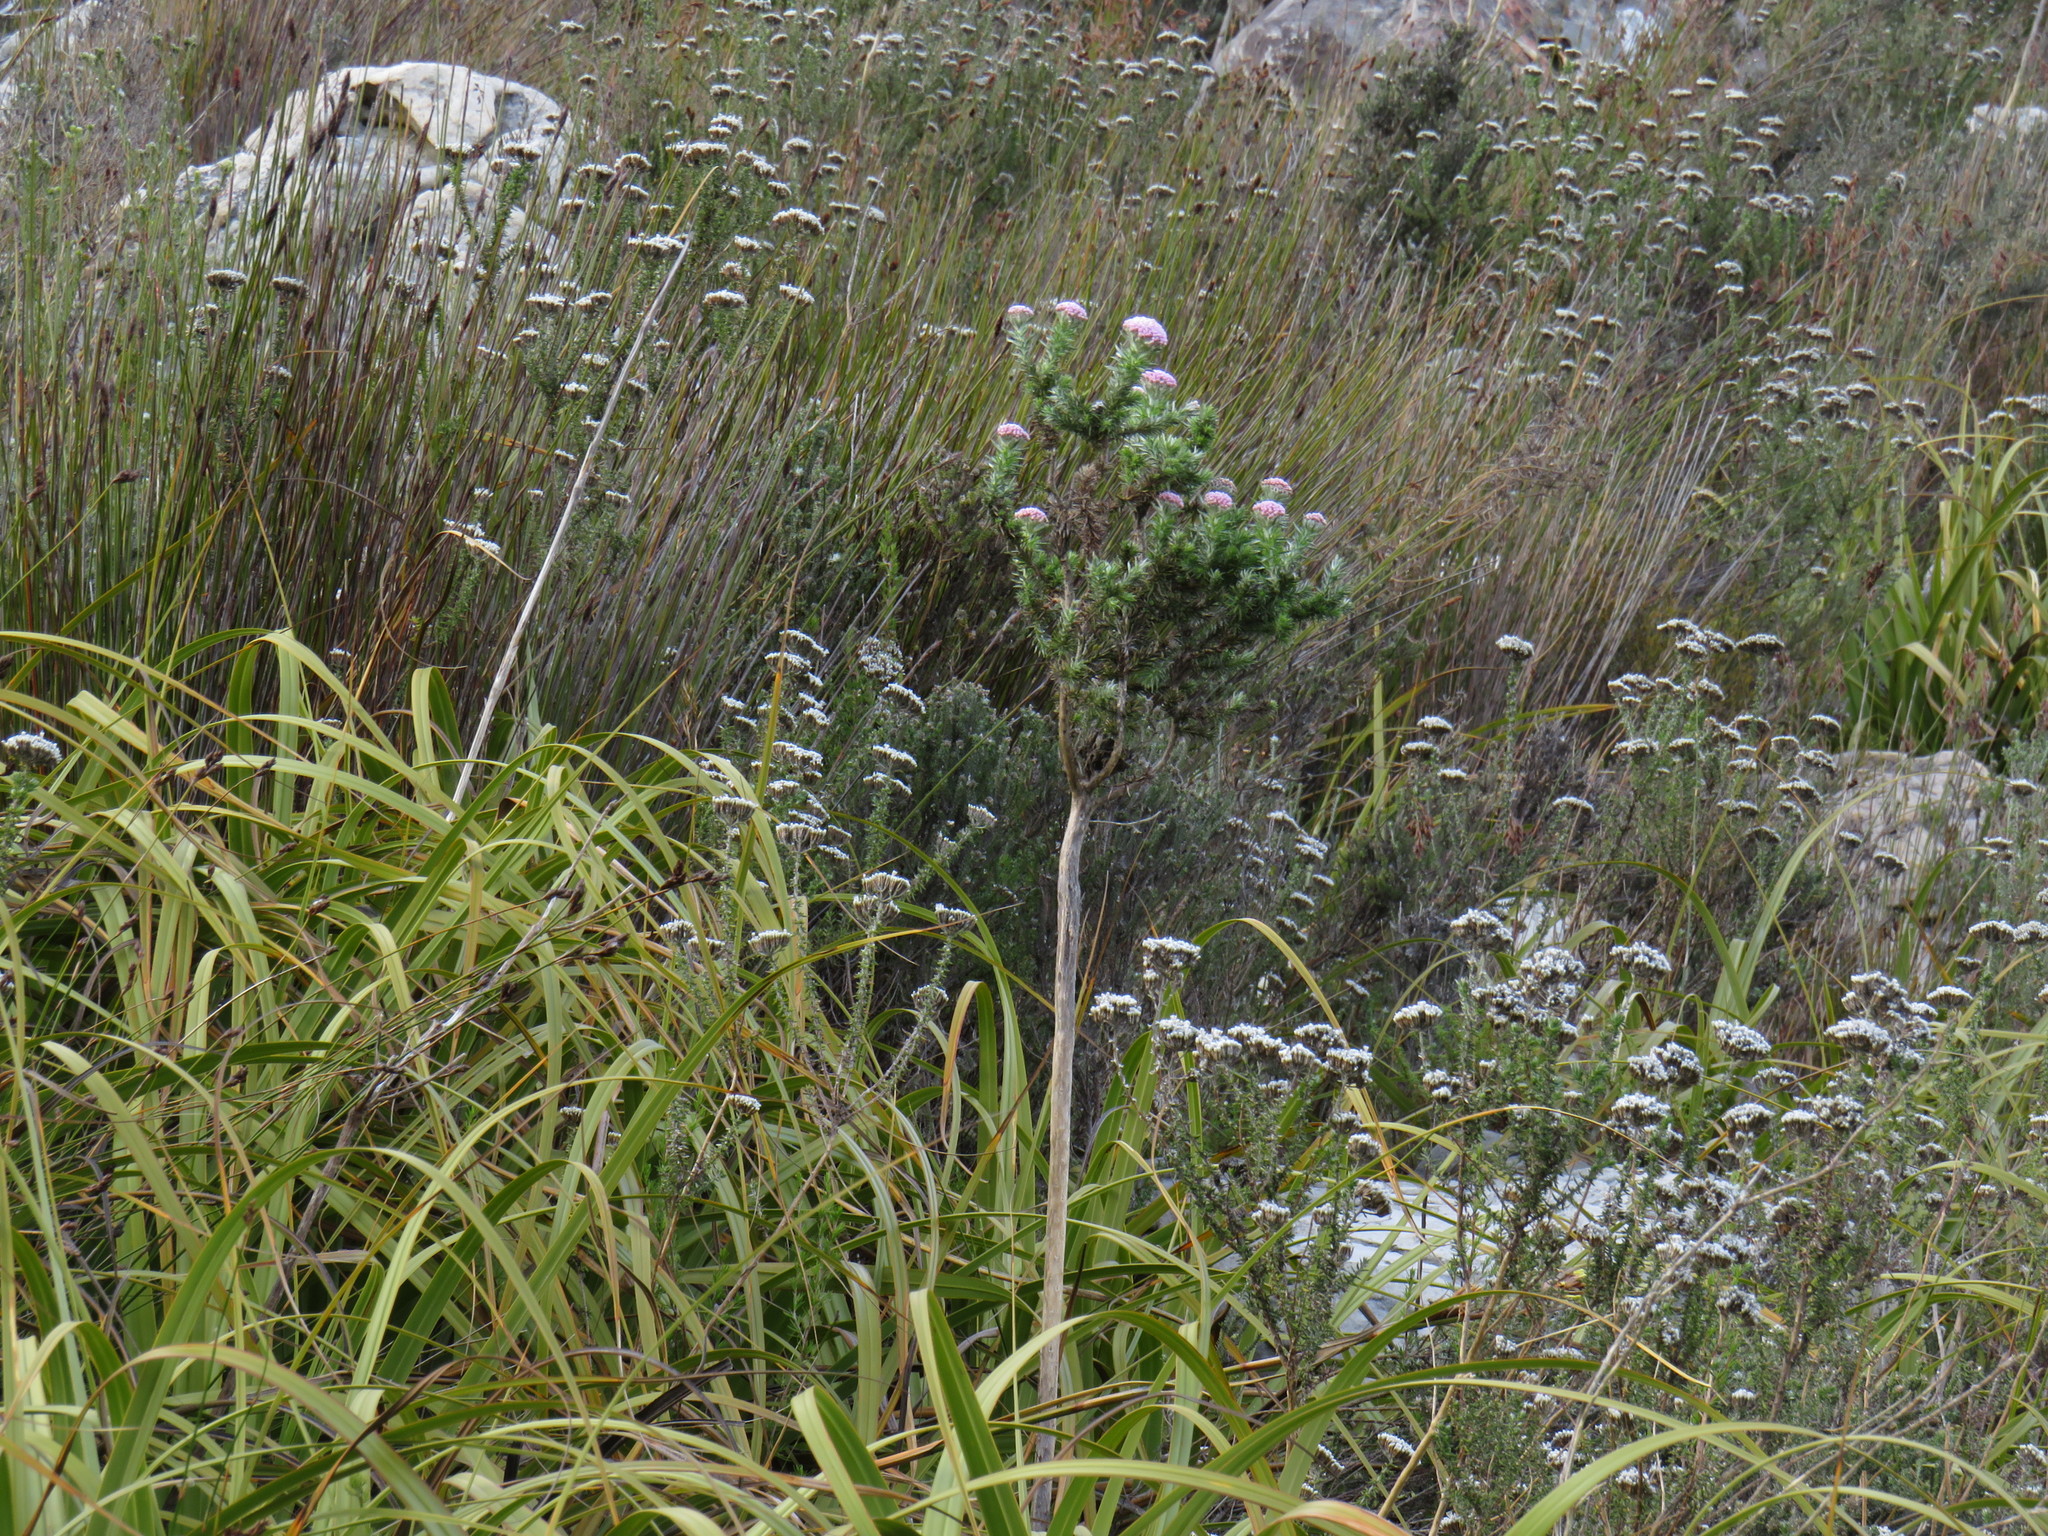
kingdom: Plantae
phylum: Tracheophyta
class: Magnoliopsida
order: Asterales
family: Asteraceae
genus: Metalasia
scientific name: Metalasia muraltiifolia
